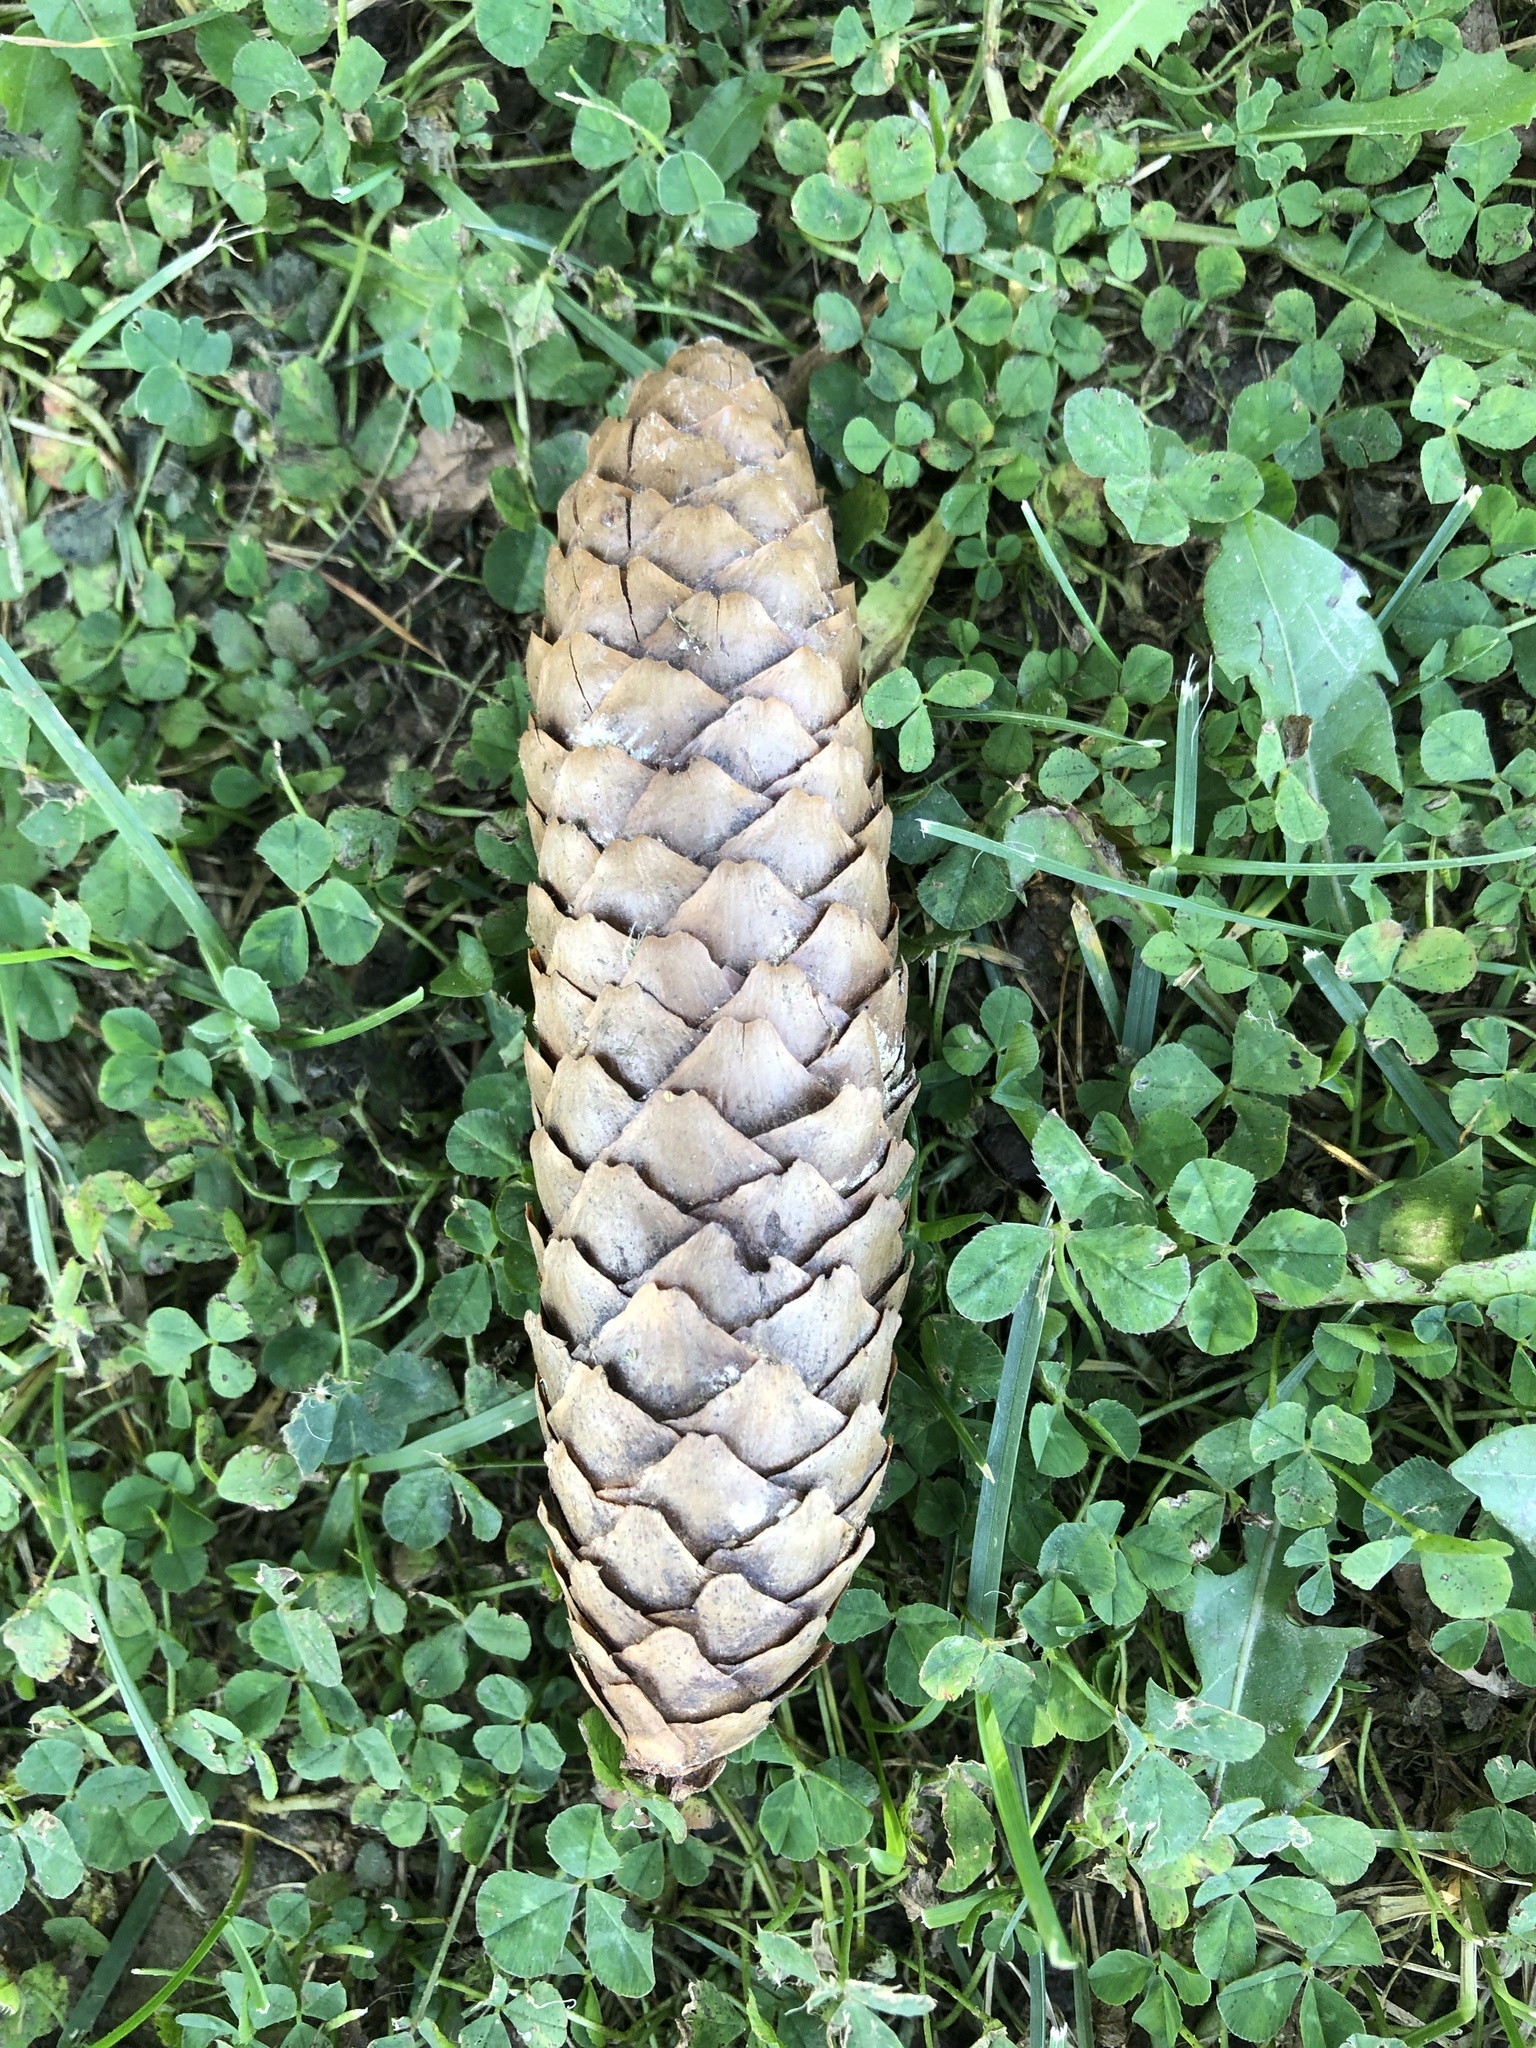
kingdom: Plantae
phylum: Tracheophyta
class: Pinopsida
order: Pinales
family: Pinaceae
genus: Picea
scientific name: Picea abies
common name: Norway spruce
